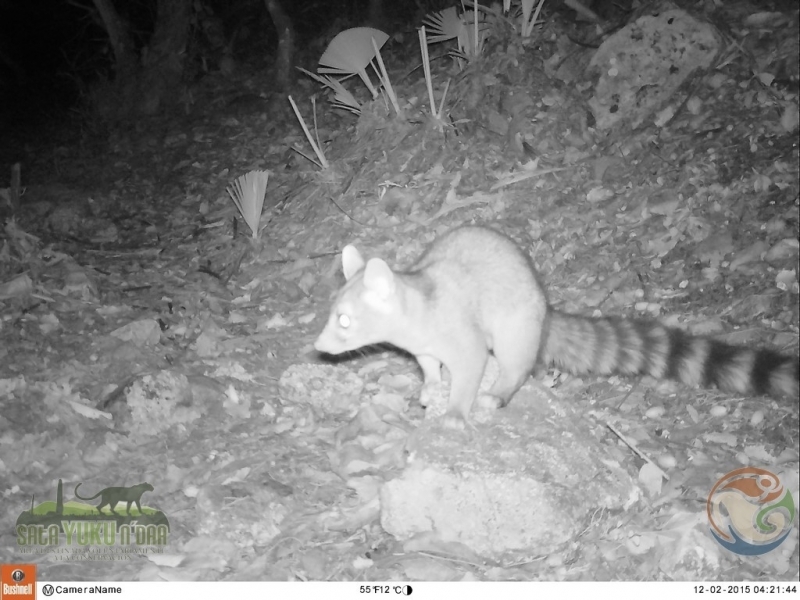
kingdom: Animalia
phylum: Chordata
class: Mammalia
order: Carnivora
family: Procyonidae
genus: Bassariscus
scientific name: Bassariscus astutus
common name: Ringtail
